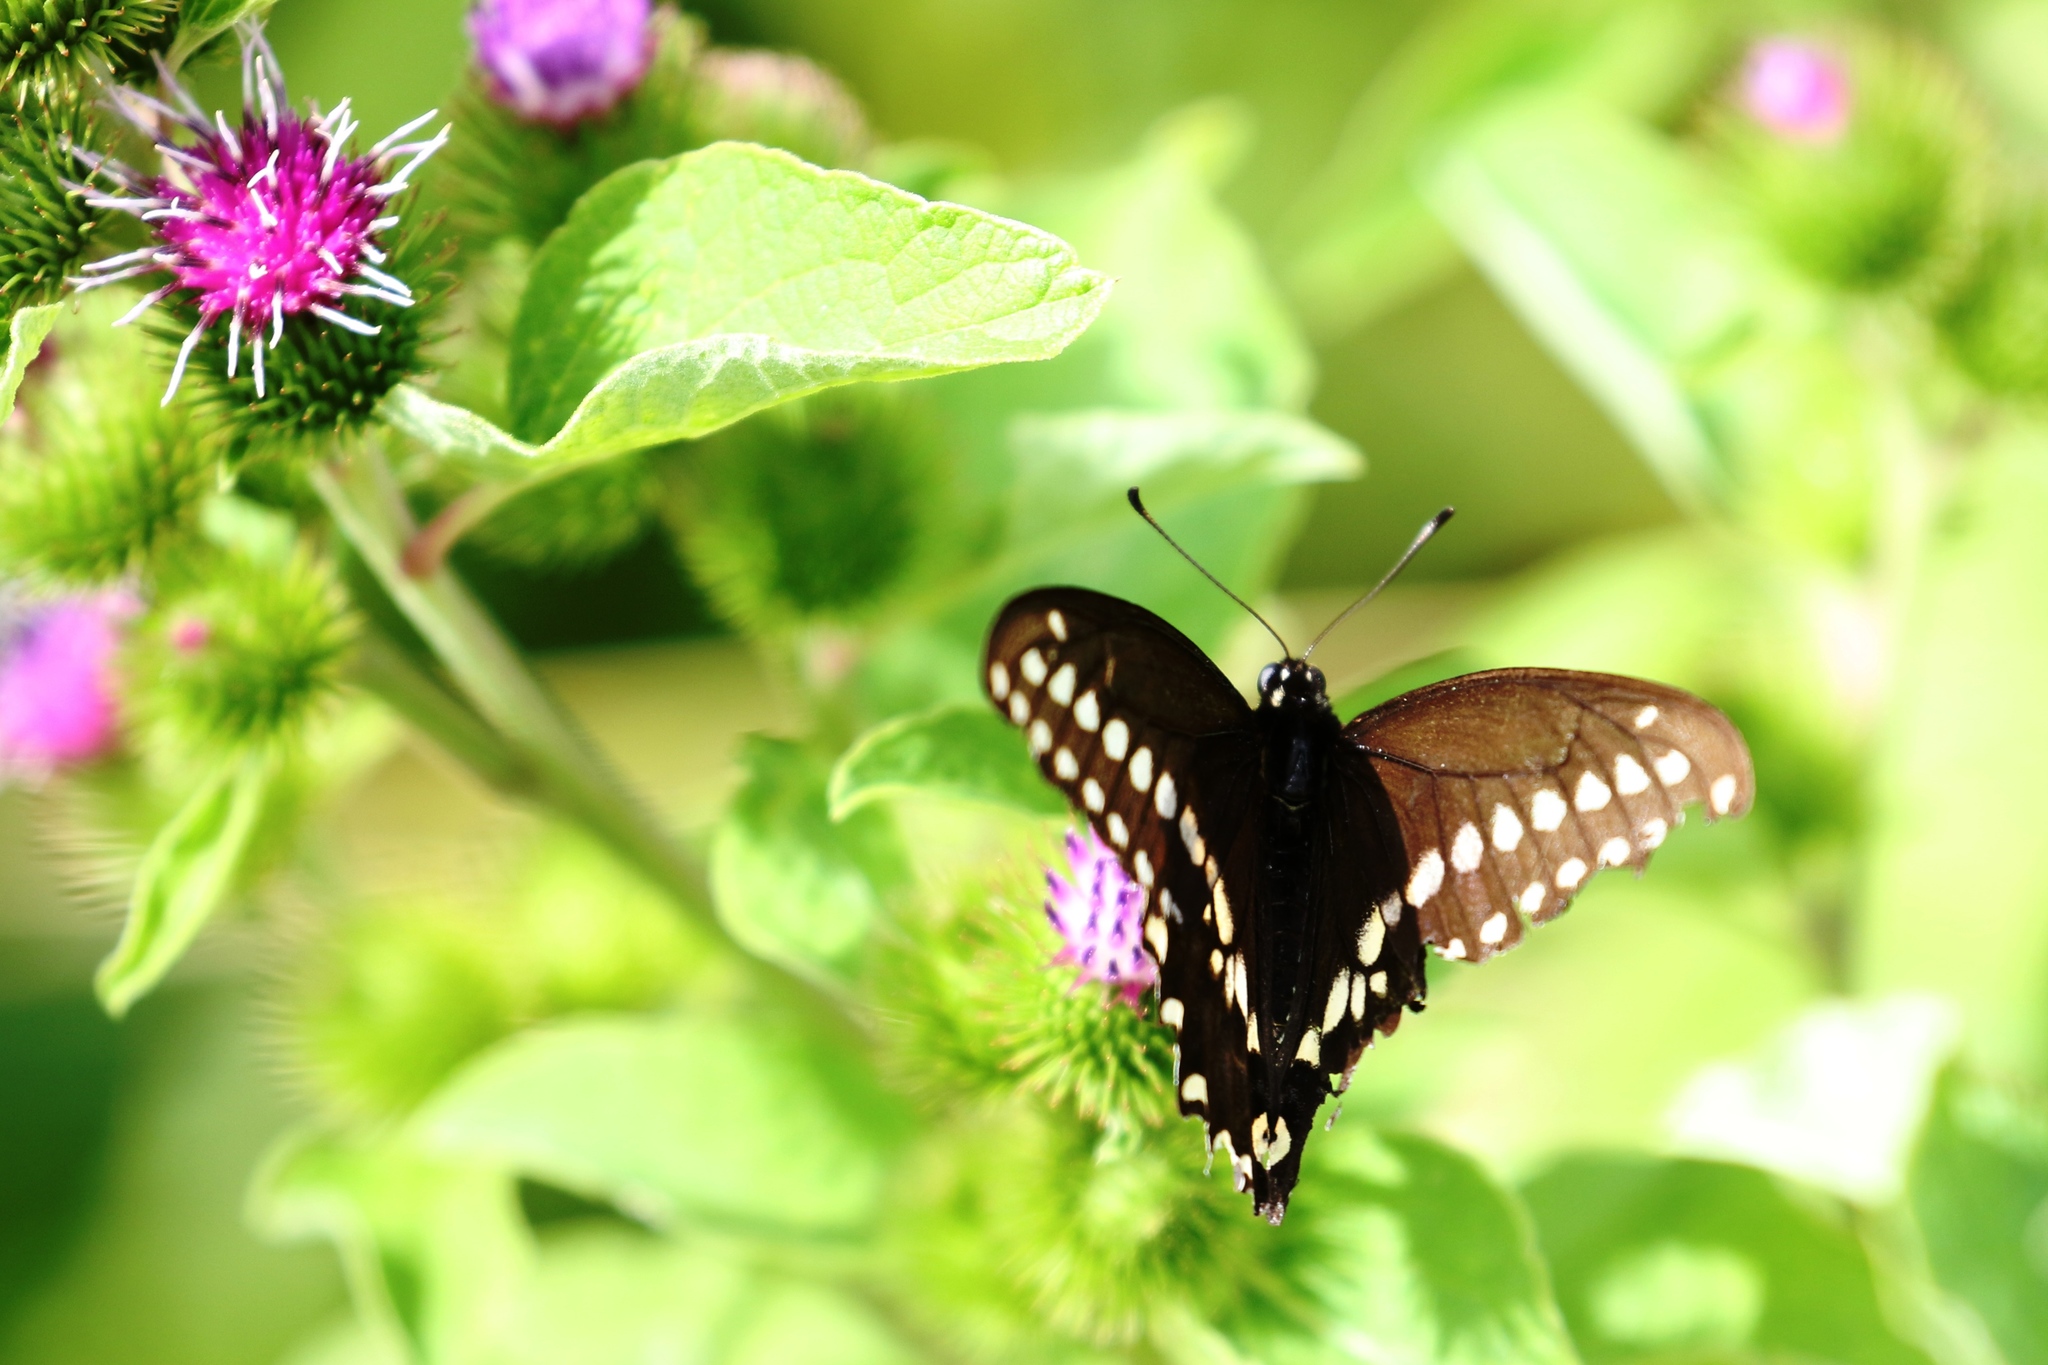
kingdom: Animalia
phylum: Arthropoda
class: Insecta
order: Lepidoptera
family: Papilionidae
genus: Papilio
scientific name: Papilio polyxenes
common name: Black swallowtail
